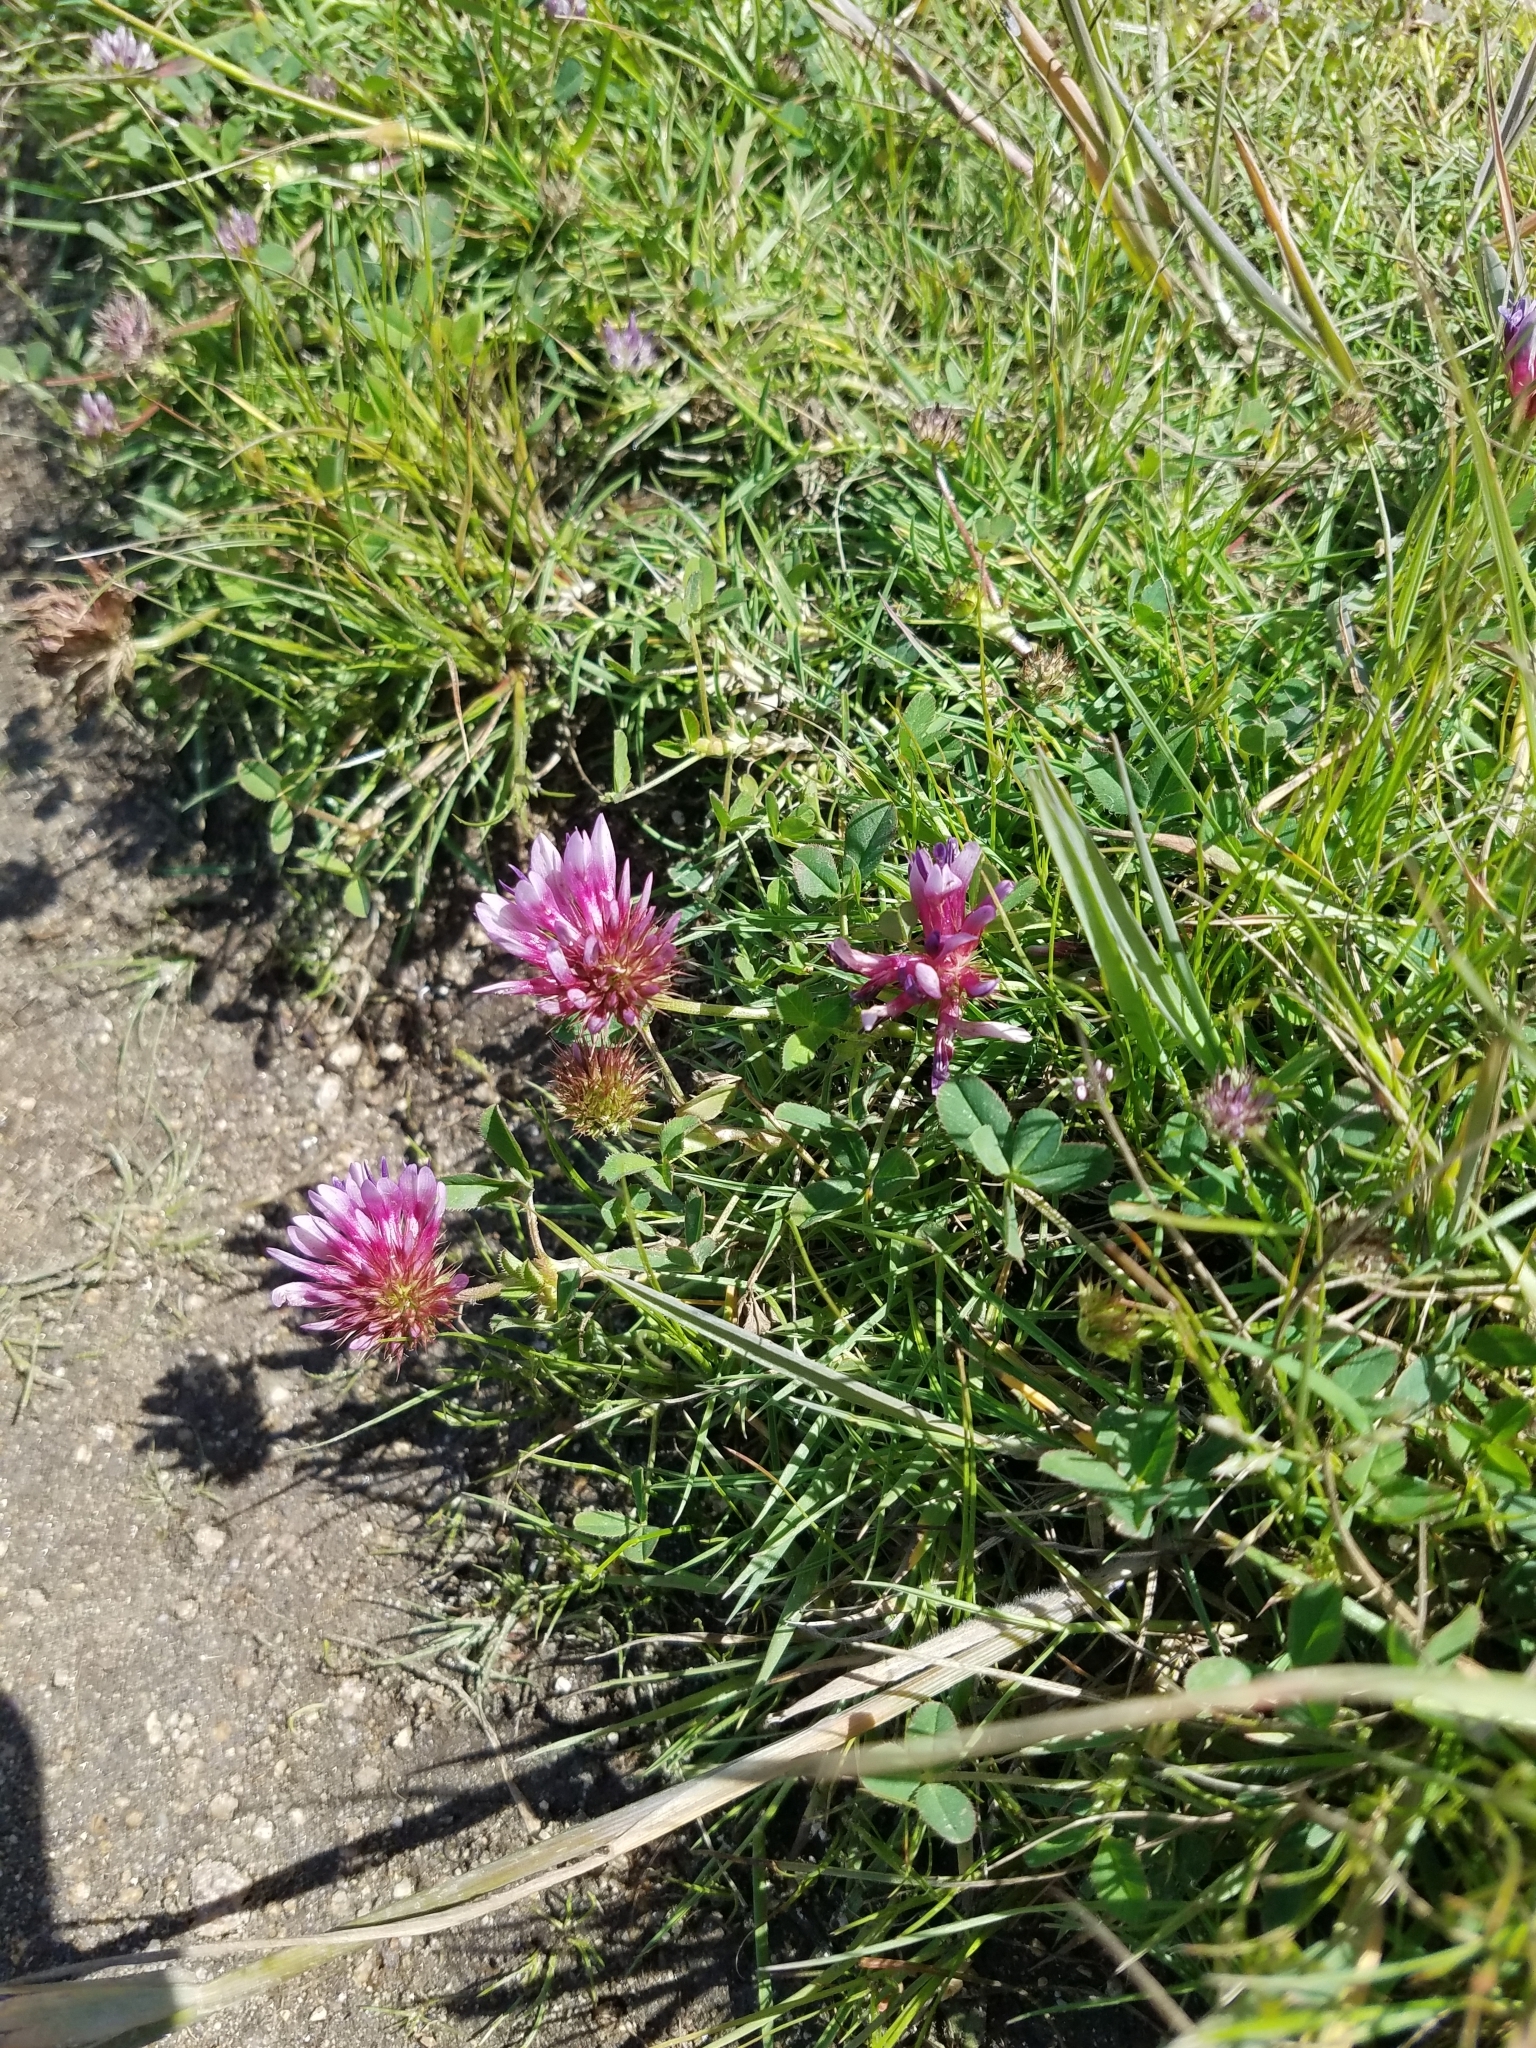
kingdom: Plantae
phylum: Tracheophyta
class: Magnoliopsida
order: Fabales
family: Fabaceae
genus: Trifolium
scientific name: Trifolium wormskioldii
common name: Springbank clover
